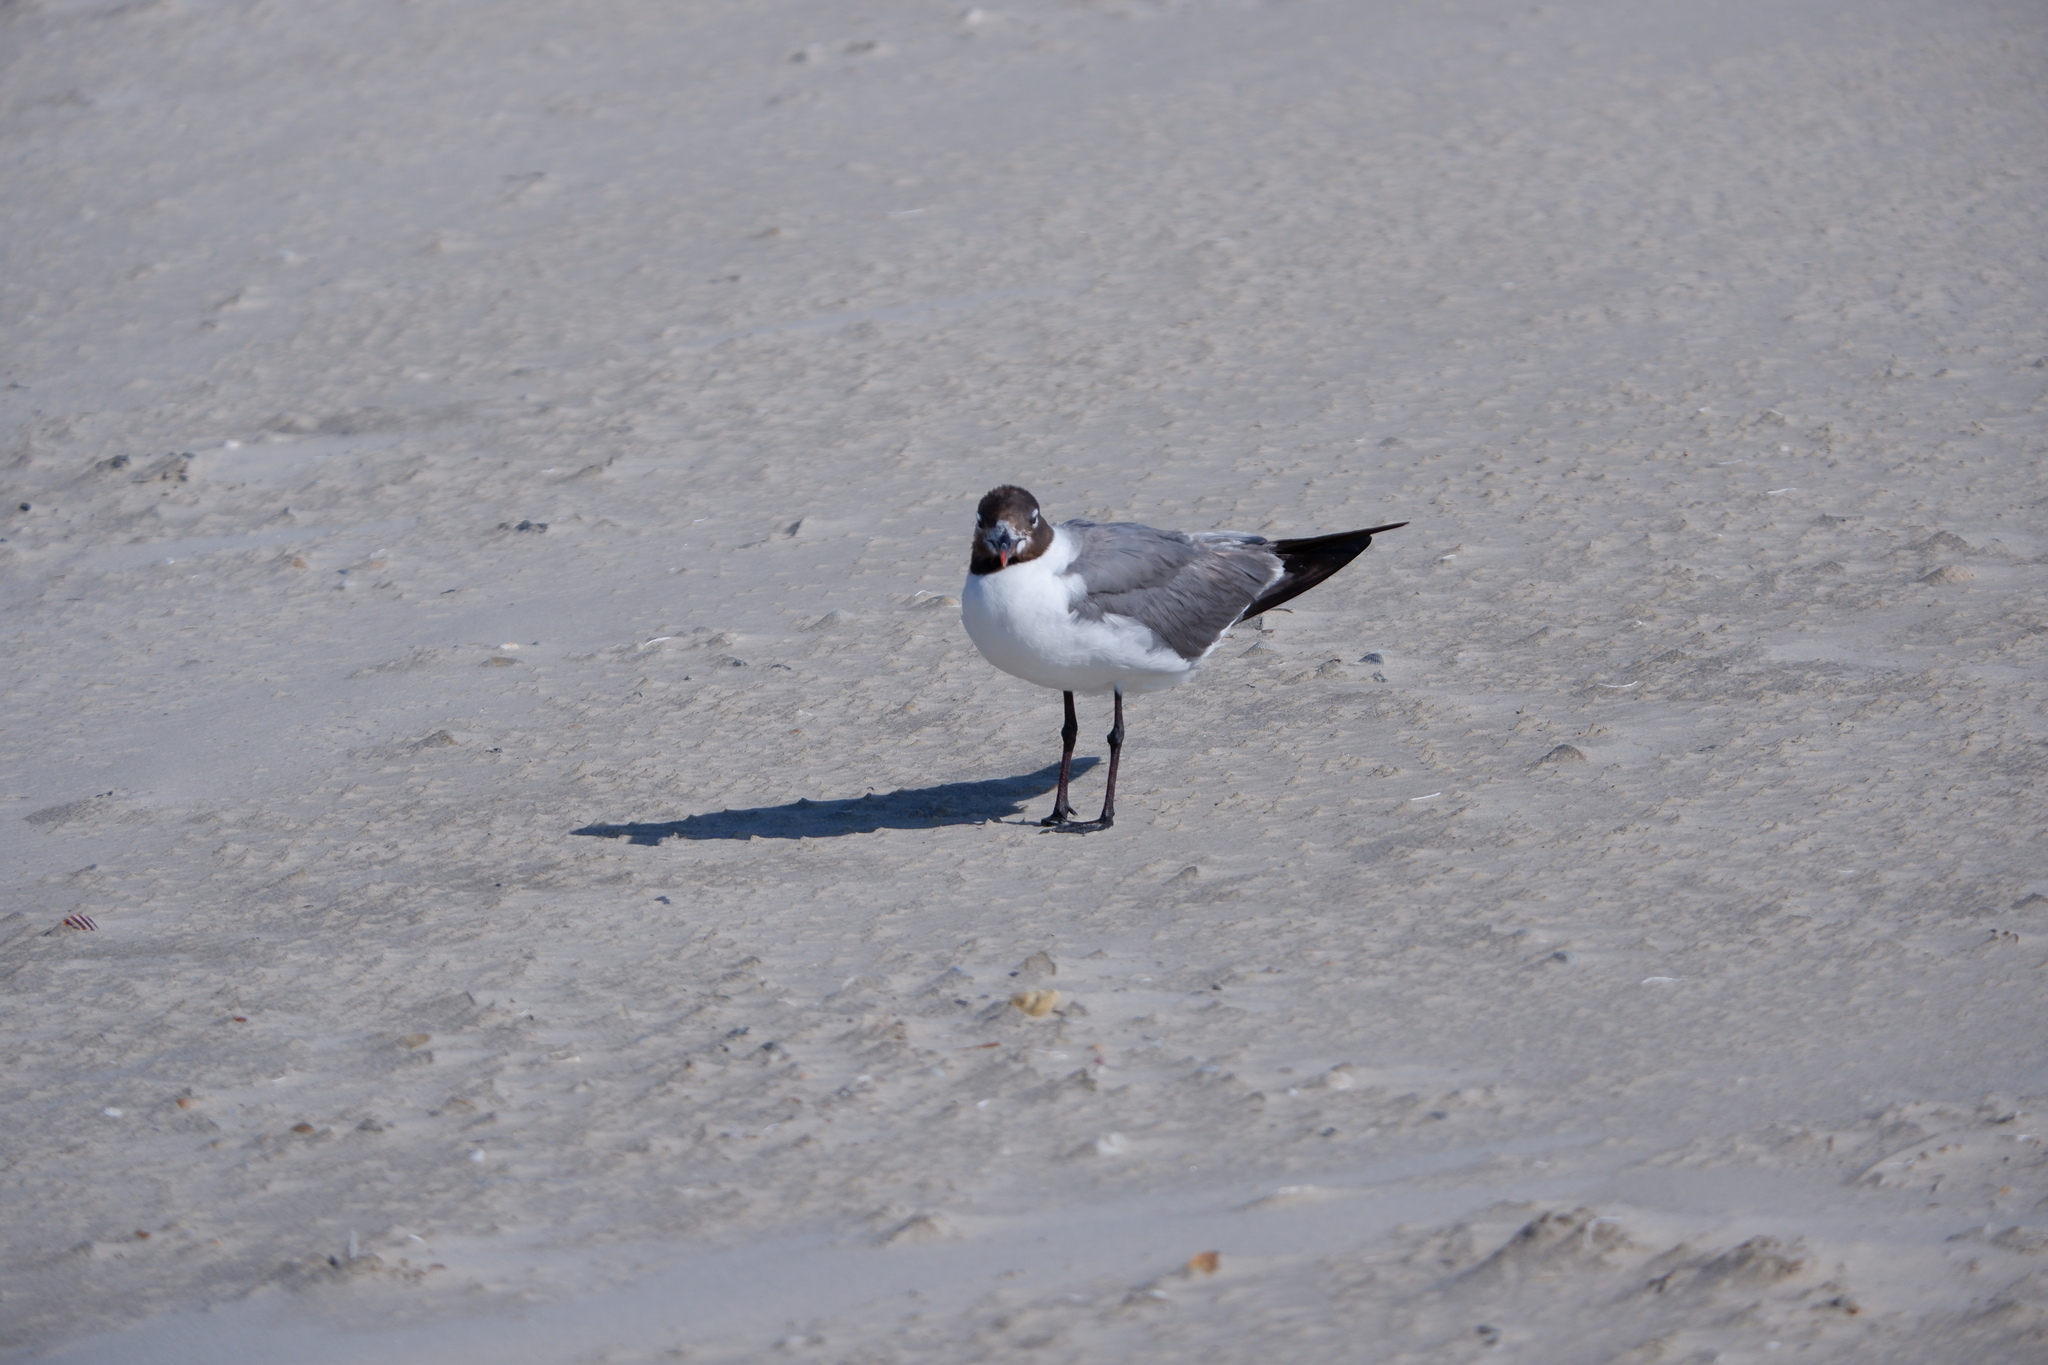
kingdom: Animalia
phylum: Chordata
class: Aves
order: Charadriiformes
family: Laridae
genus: Leucophaeus
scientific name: Leucophaeus atricilla
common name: Laughing gull
